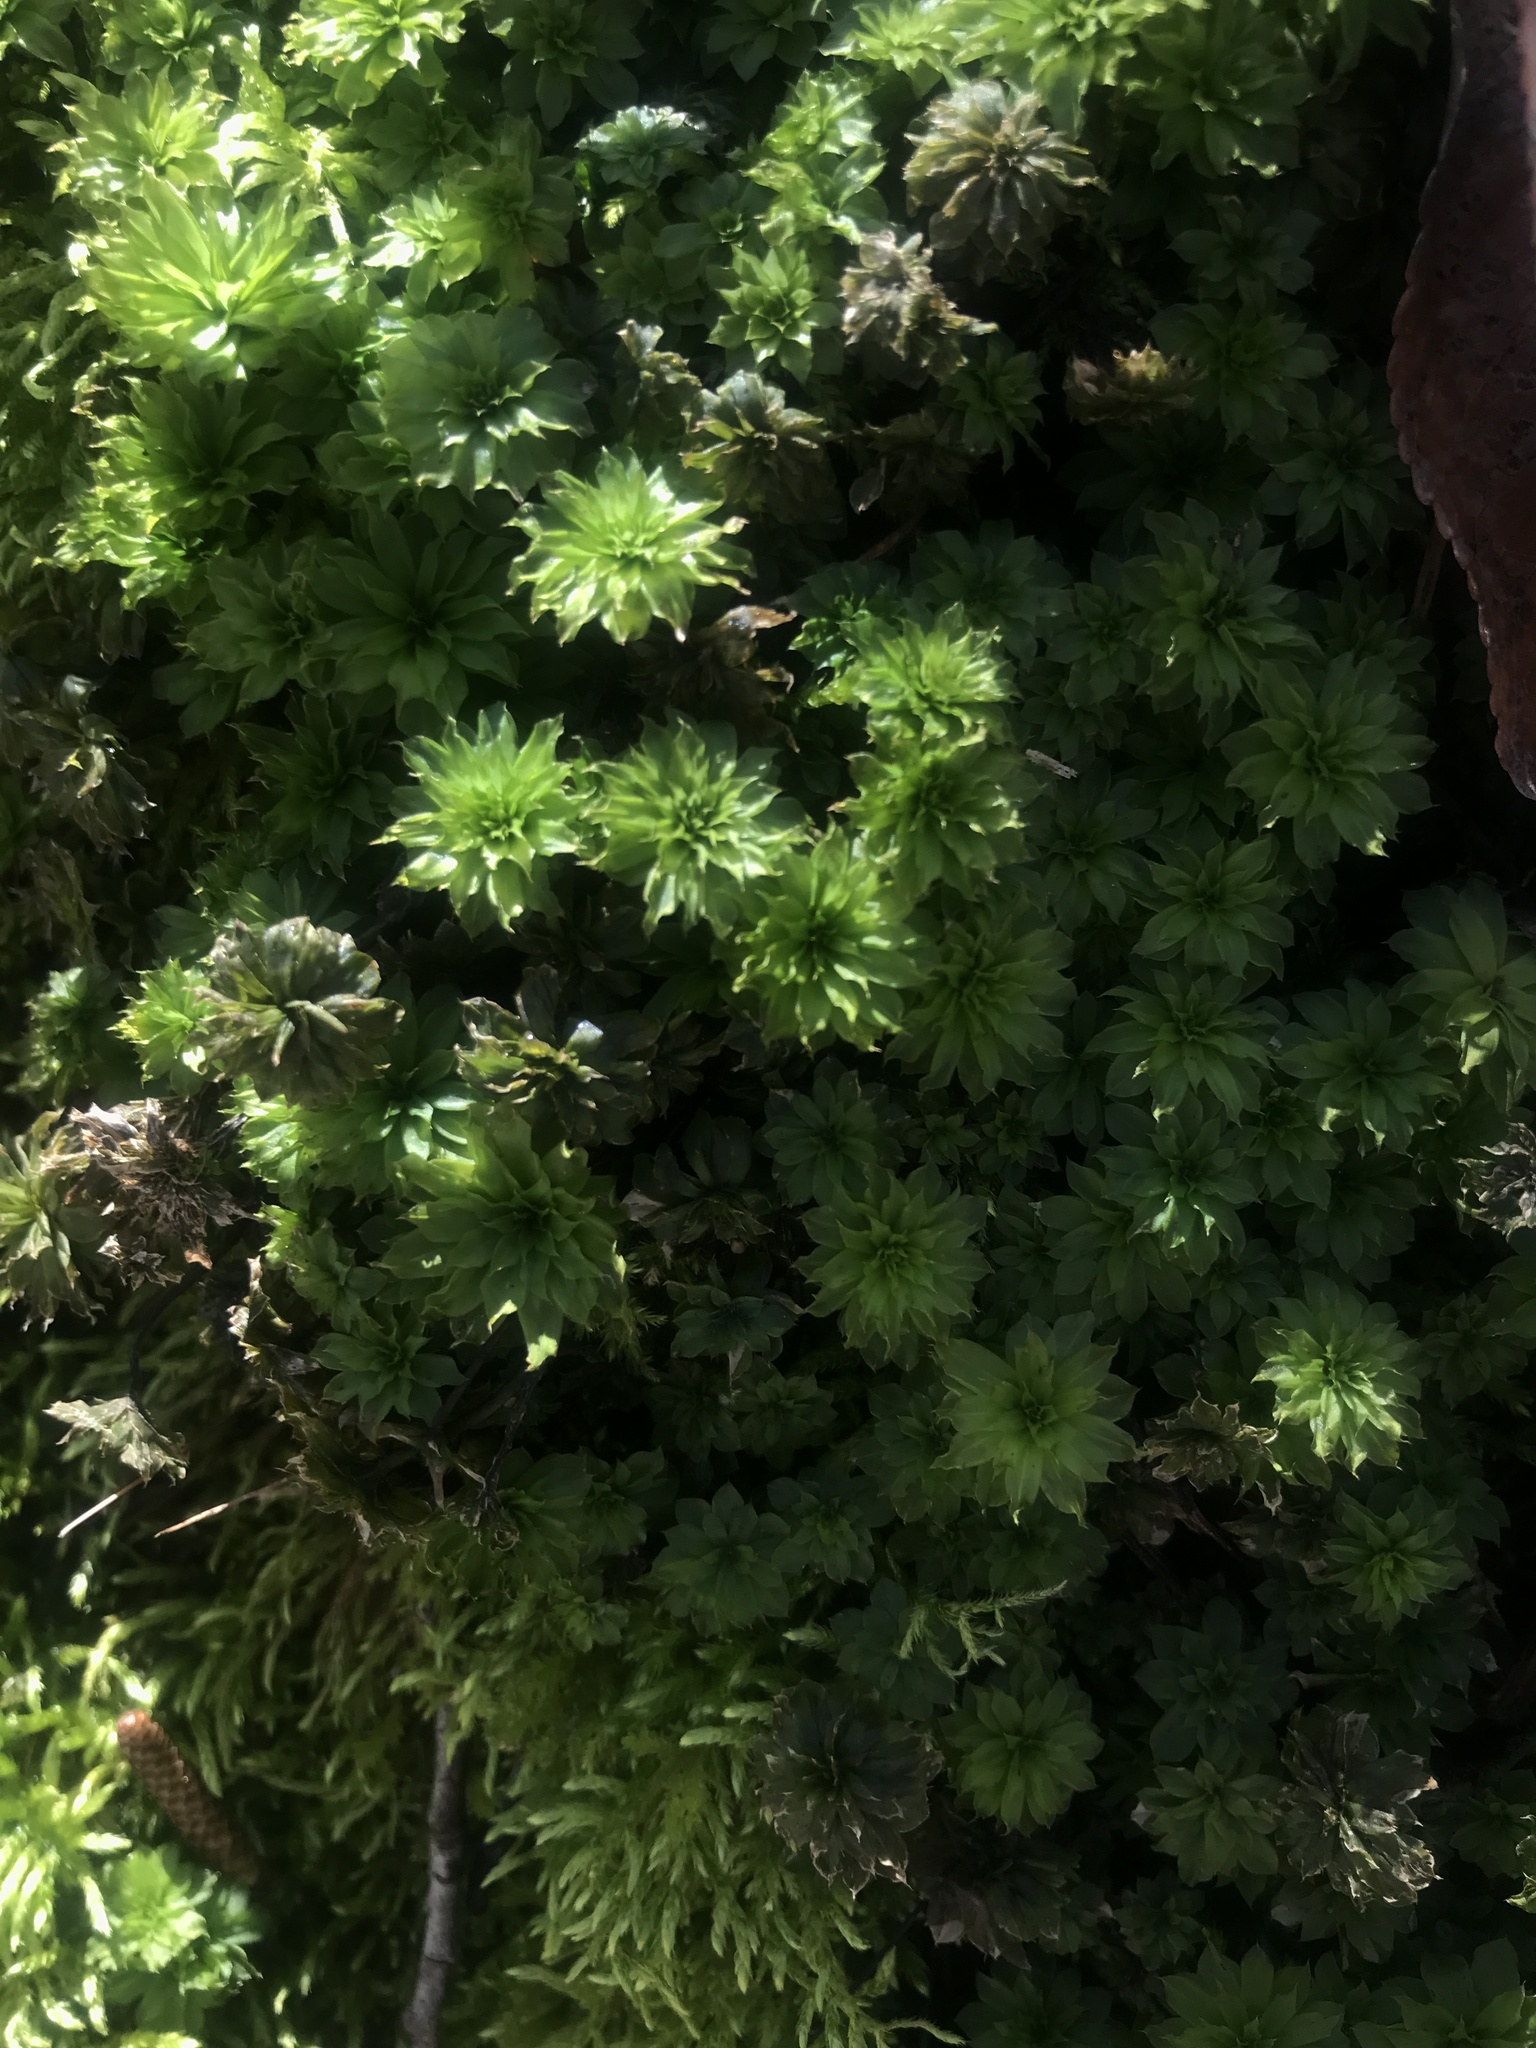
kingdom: Plantae
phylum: Bryophyta
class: Bryopsida
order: Bryales
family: Bryaceae
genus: Rhodobryum
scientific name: Rhodobryum ontariense
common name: Ontario rhodobryum moss
